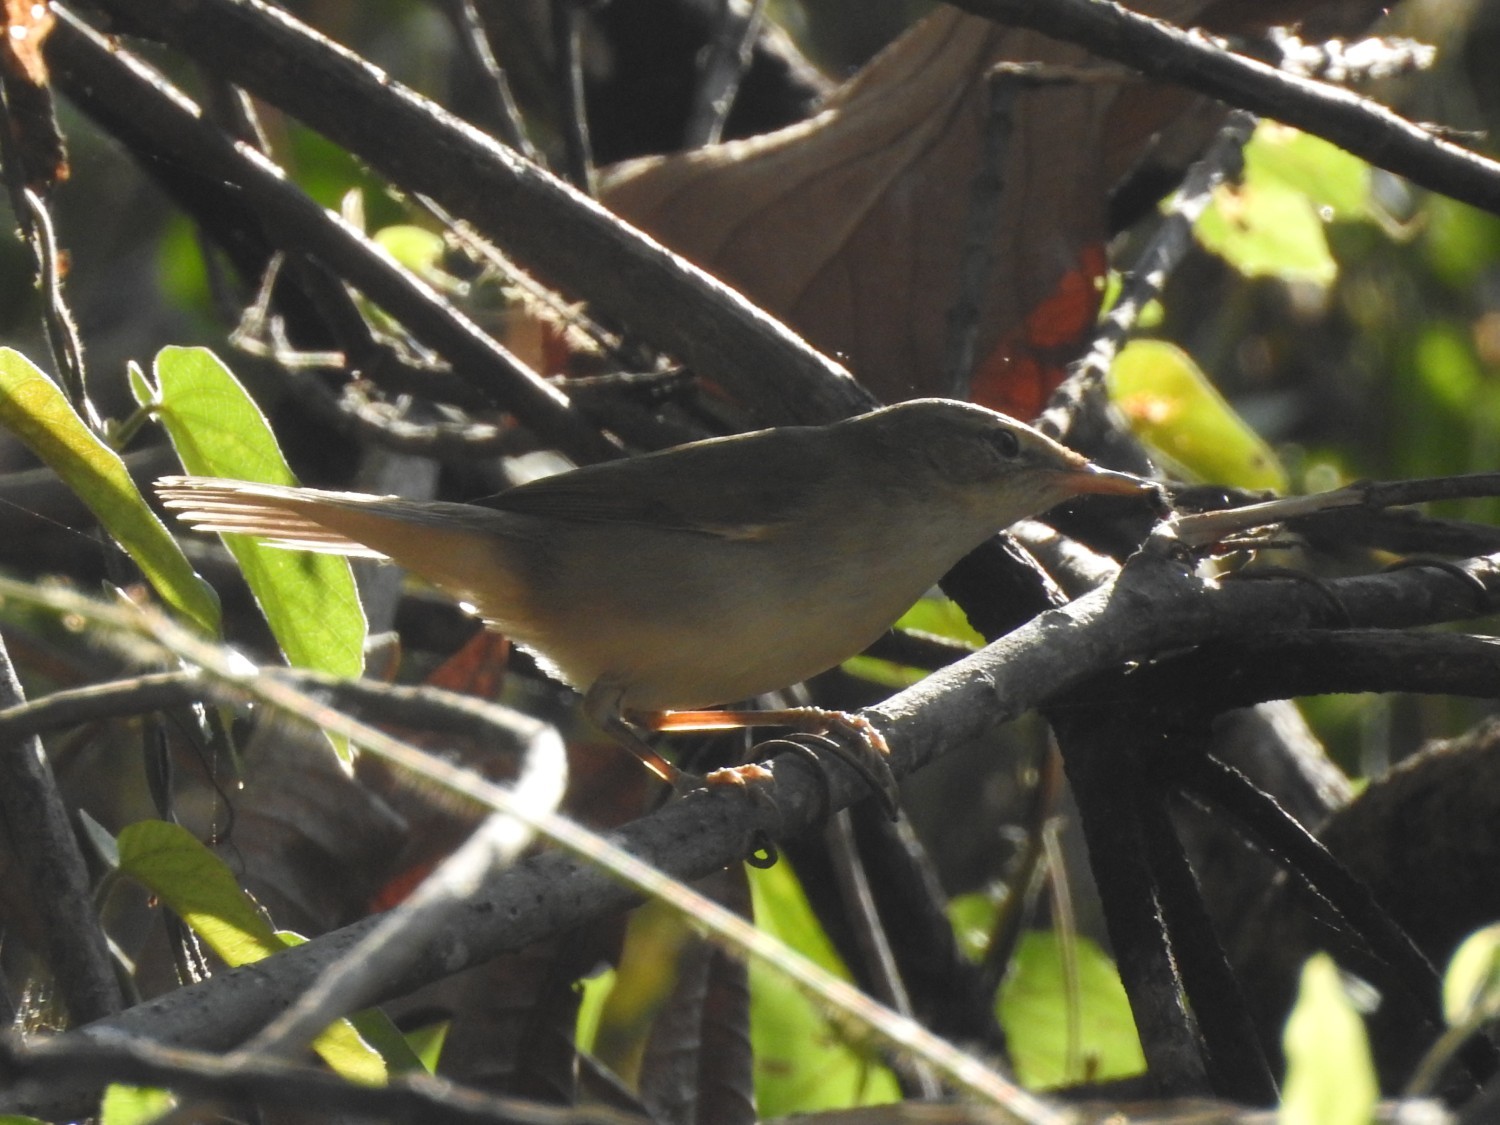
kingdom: Animalia
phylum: Chordata
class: Aves
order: Passeriformes
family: Acrocephalidae
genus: Acrocephalus
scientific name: Acrocephalus dumetorum
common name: Blyth's reed warbler
